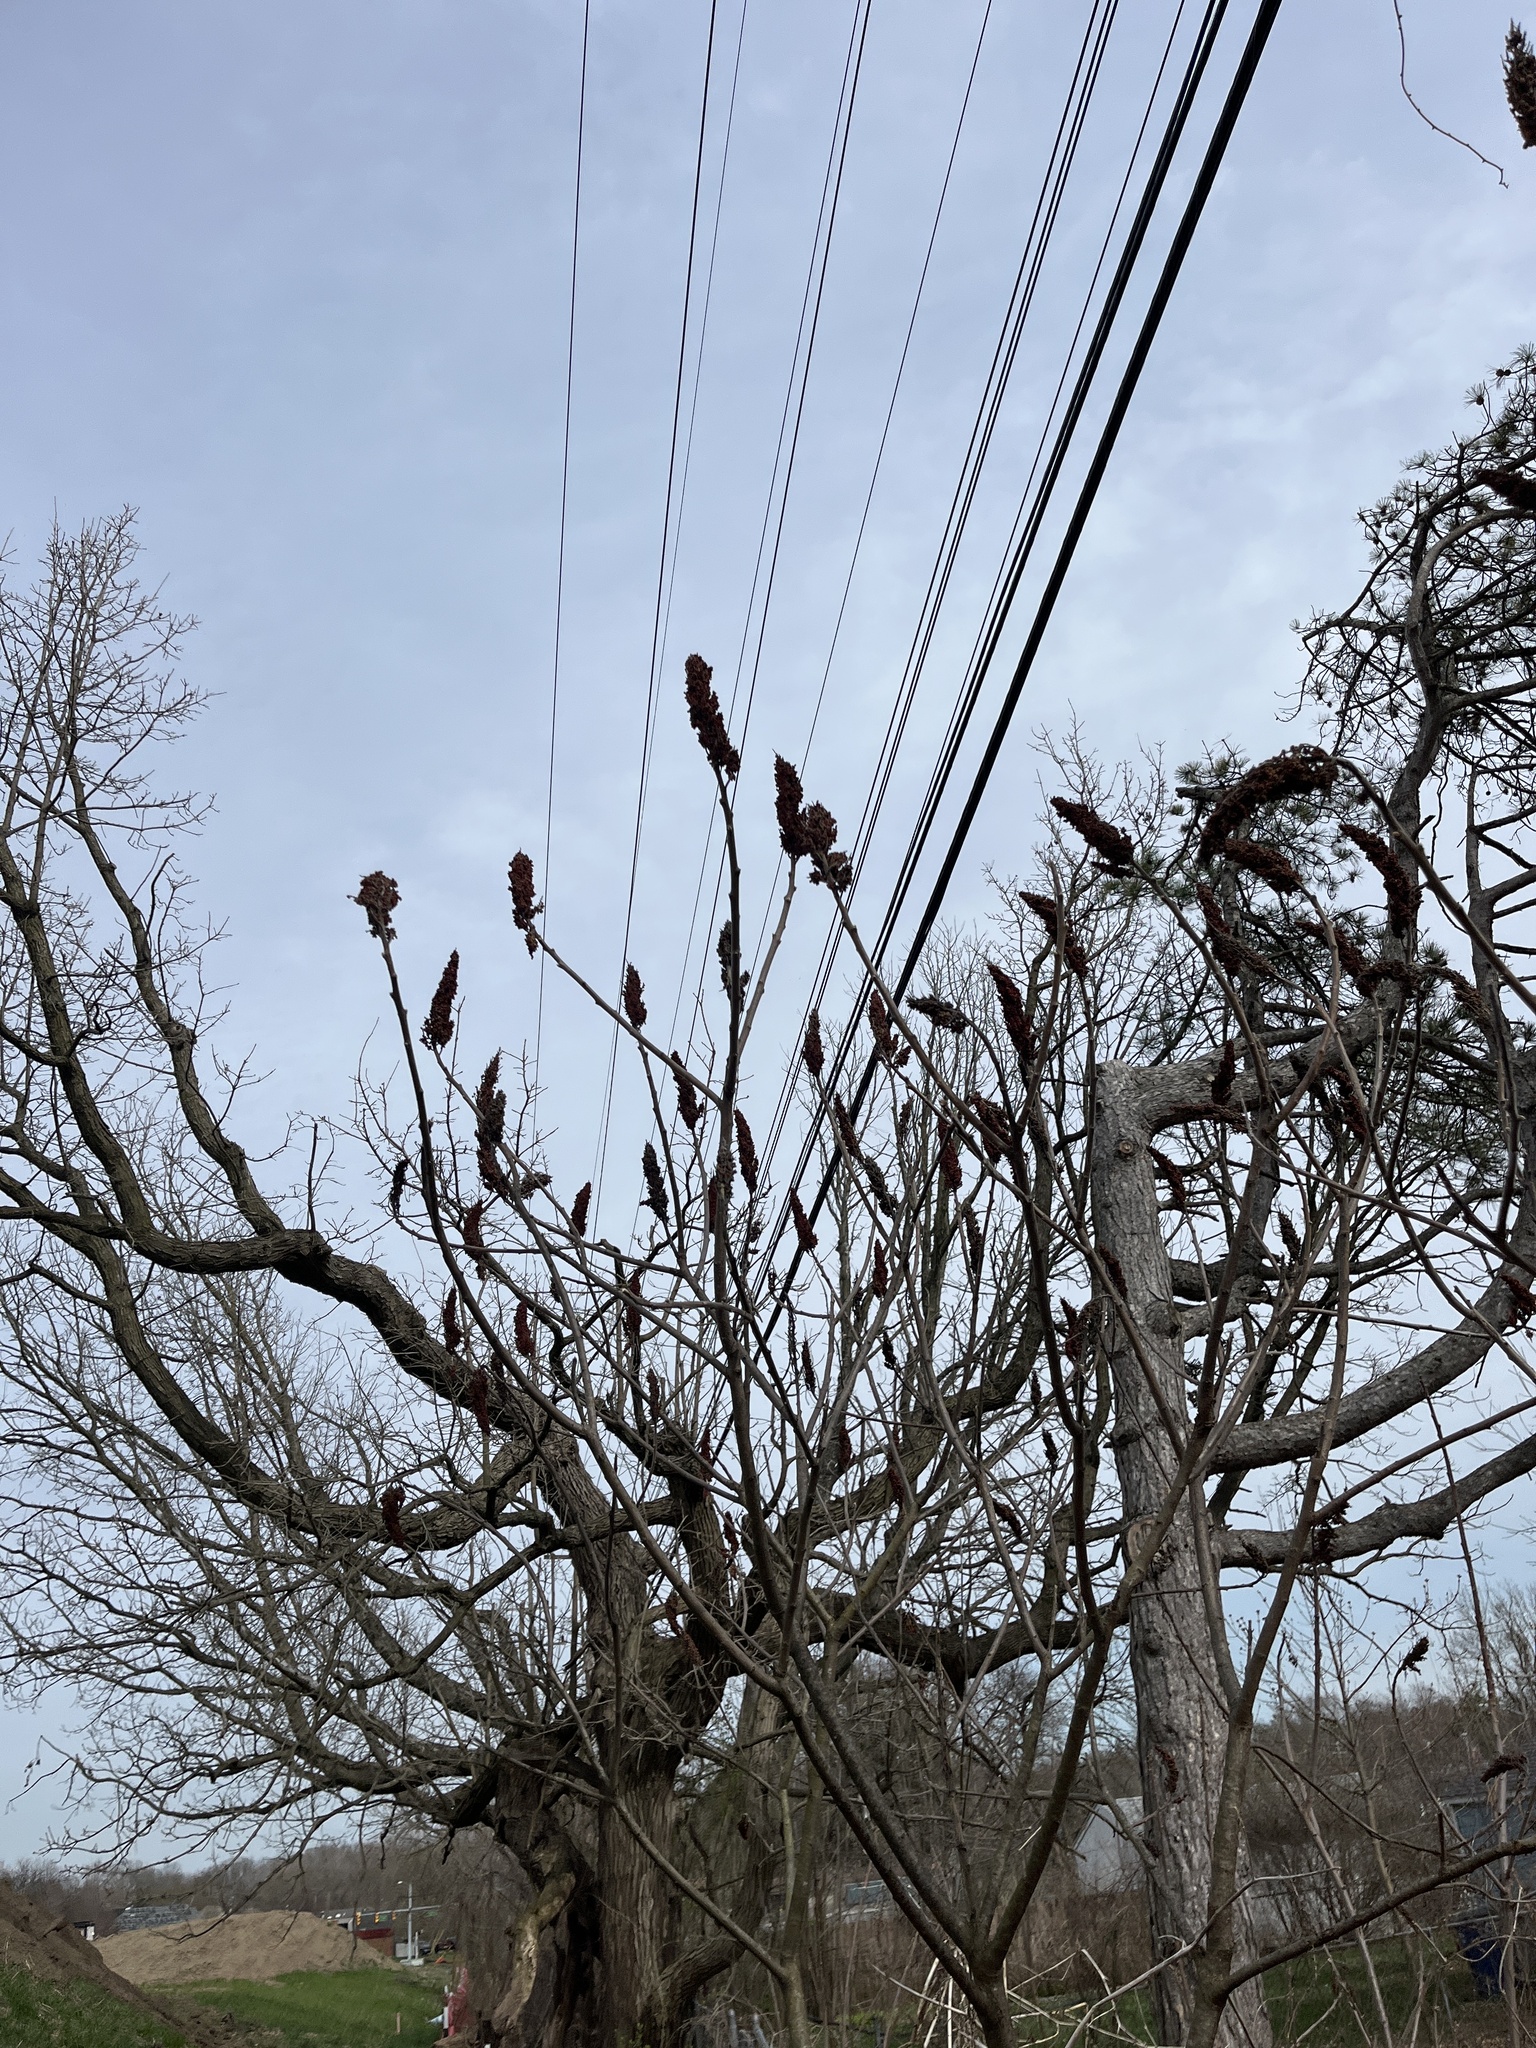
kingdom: Plantae
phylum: Tracheophyta
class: Magnoliopsida
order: Sapindales
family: Anacardiaceae
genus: Rhus
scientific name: Rhus typhina
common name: Staghorn sumac
